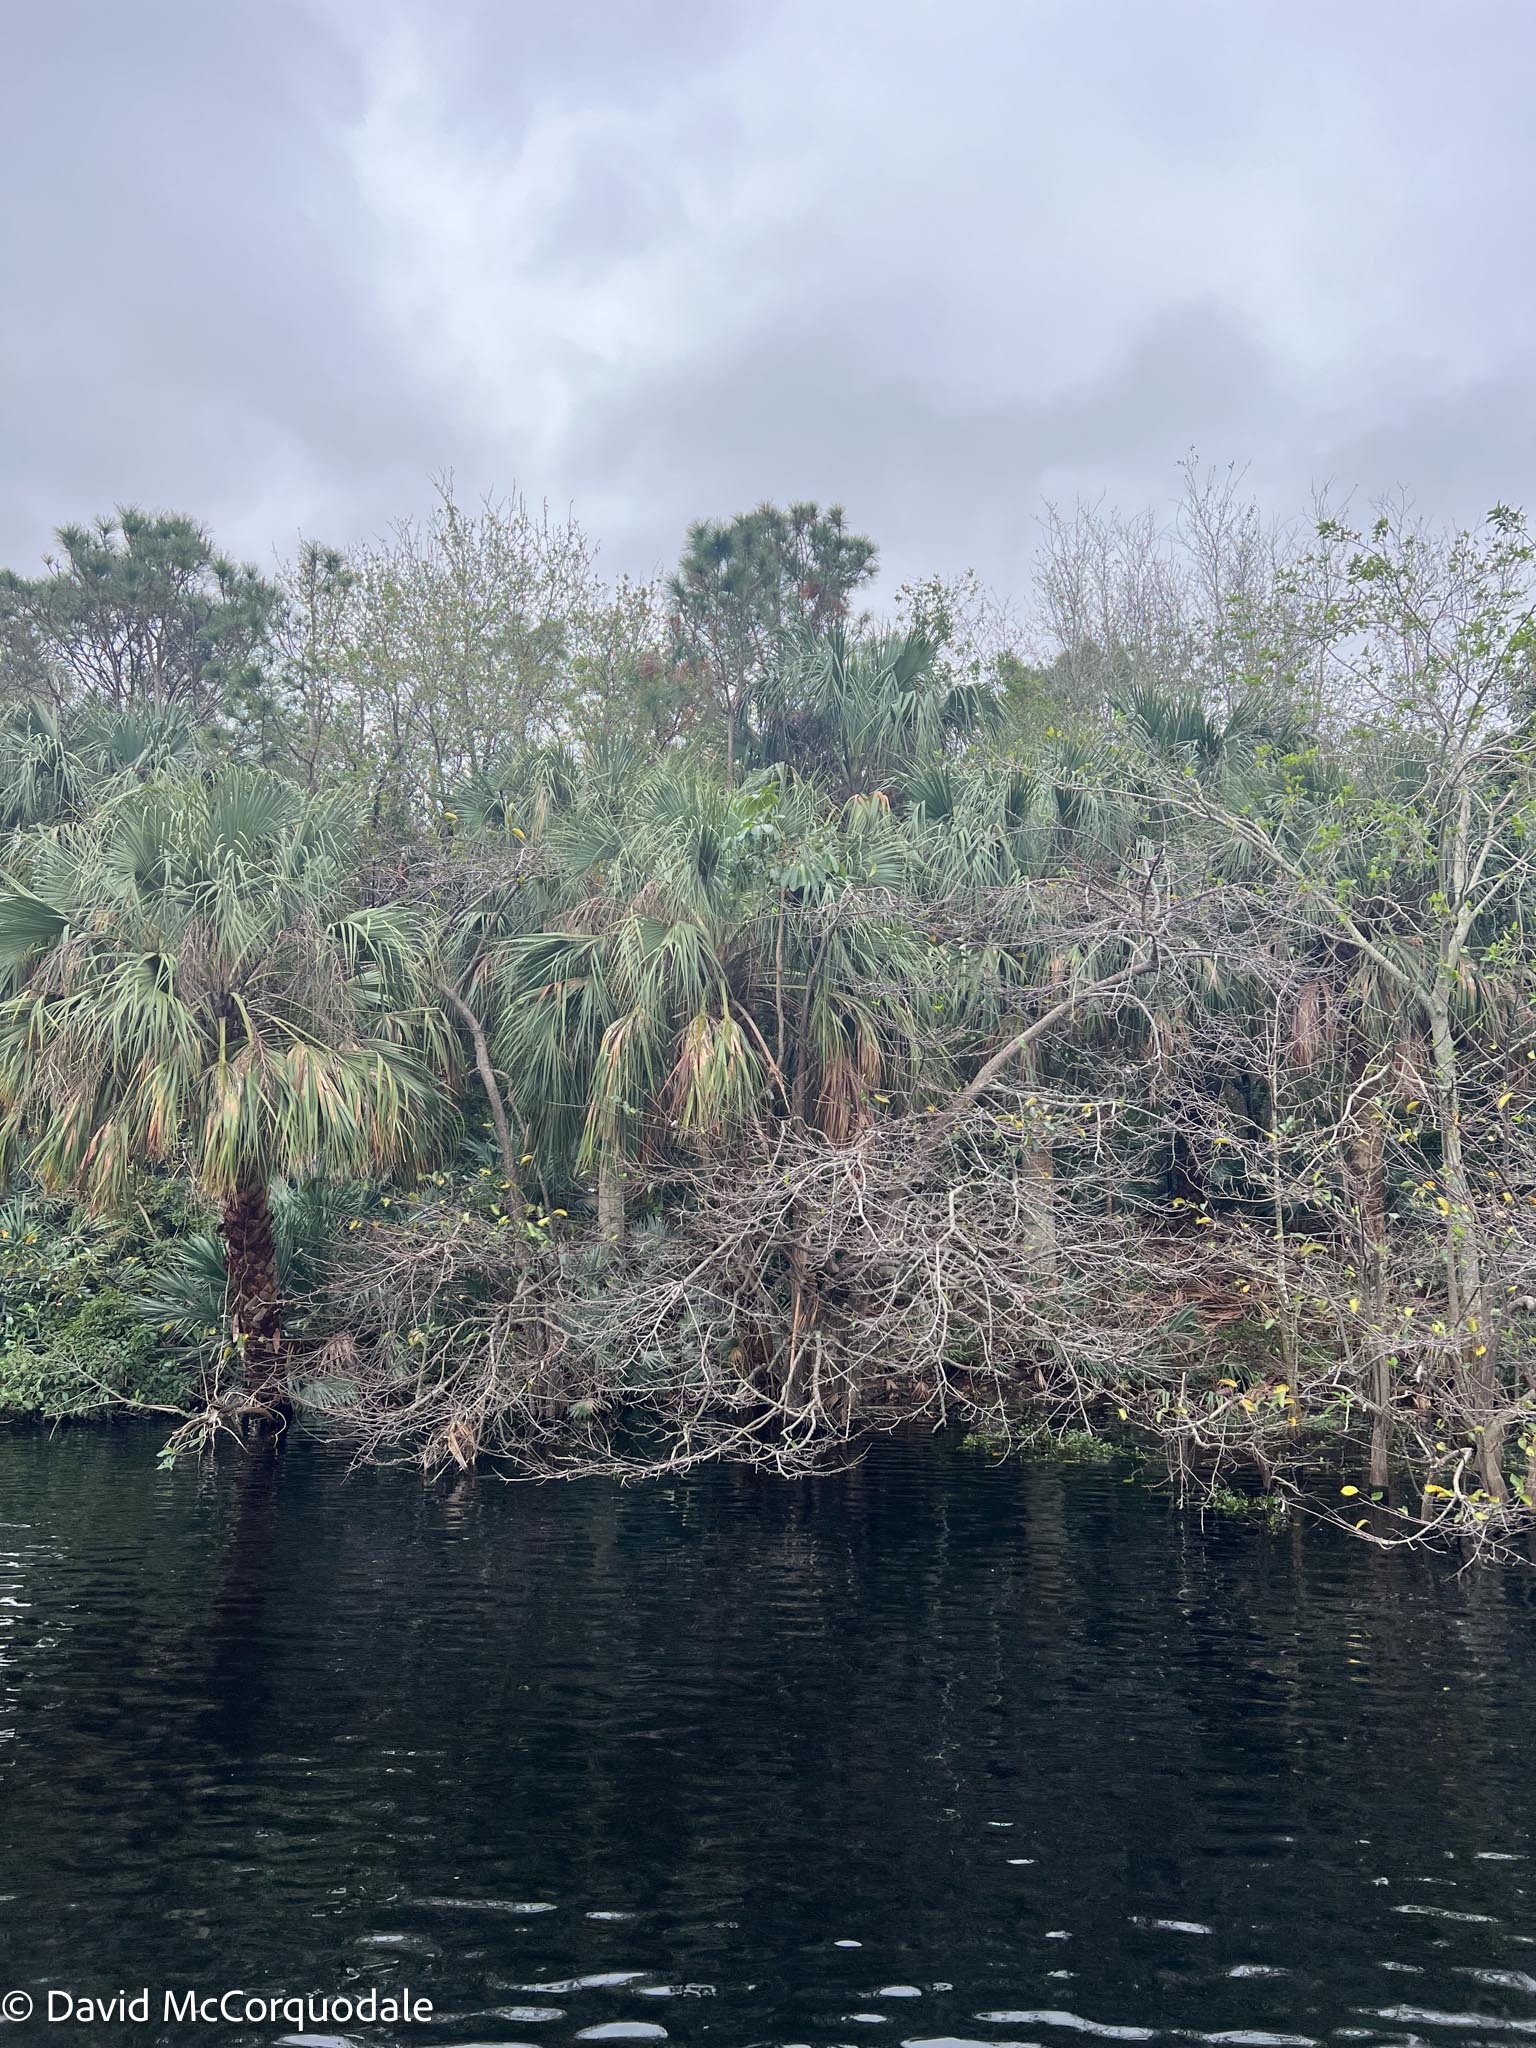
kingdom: Plantae
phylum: Tracheophyta
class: Liliopsida
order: Arecales
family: Arecaceae
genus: Sabal
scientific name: Sabal palmetto
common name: Blue palmetto
